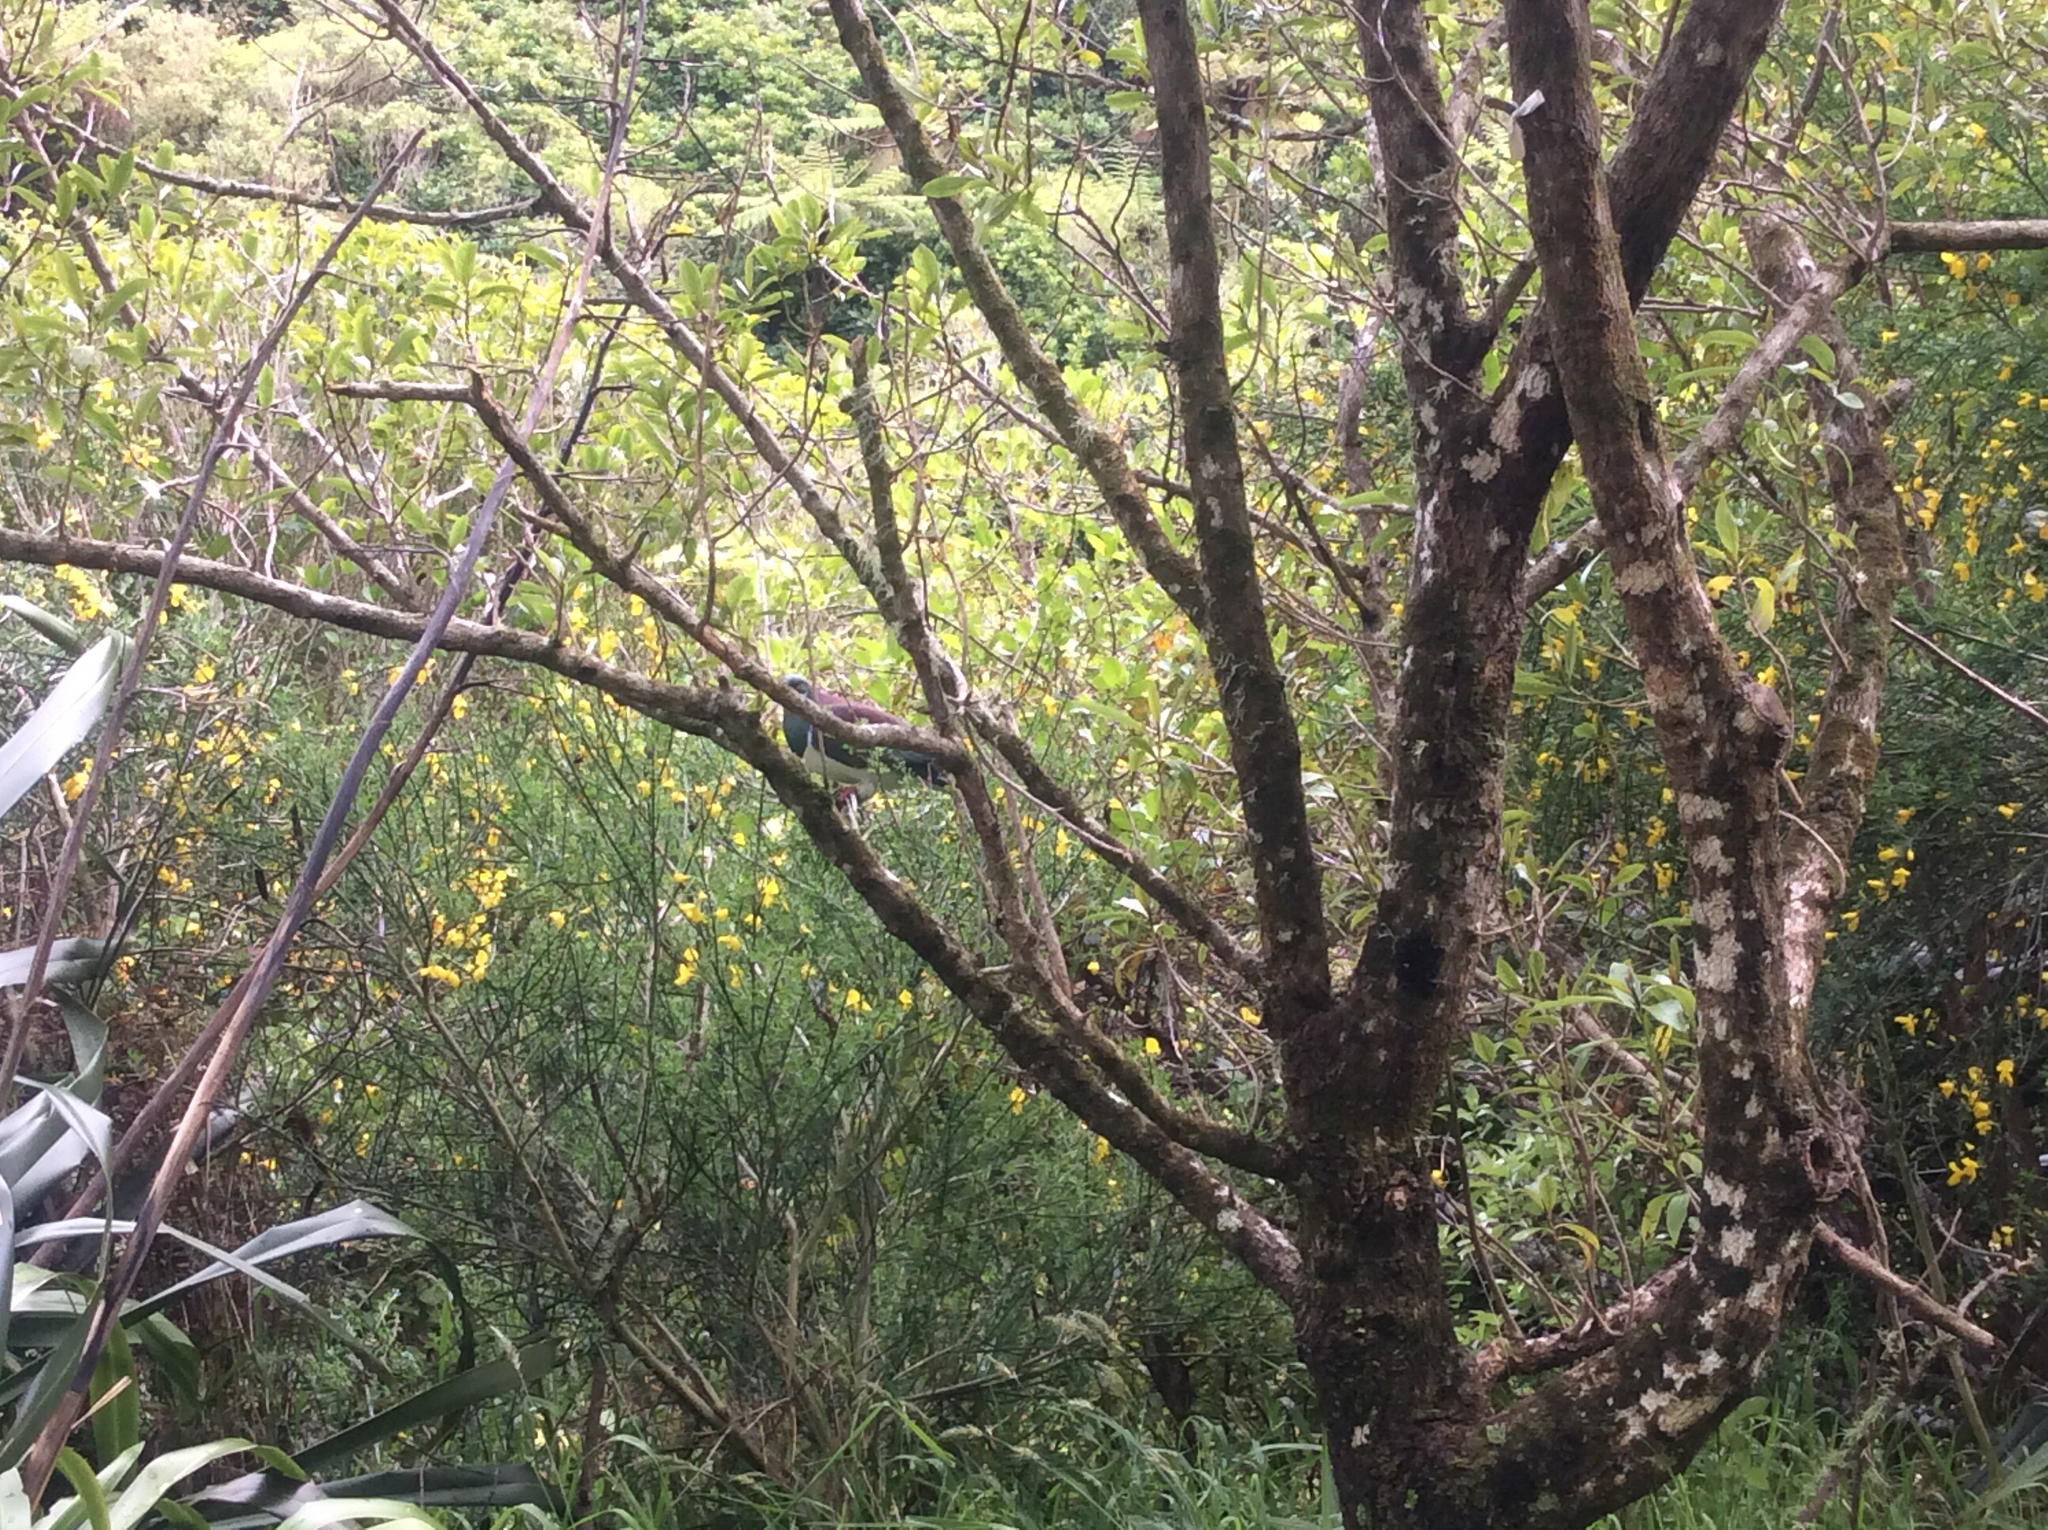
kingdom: Animalia
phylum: Chordata
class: Aves
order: Columbiformes
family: Columbidae
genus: Hemiphaga
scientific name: Hemiphaga novaeseelandiae
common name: New zealand pigeon
